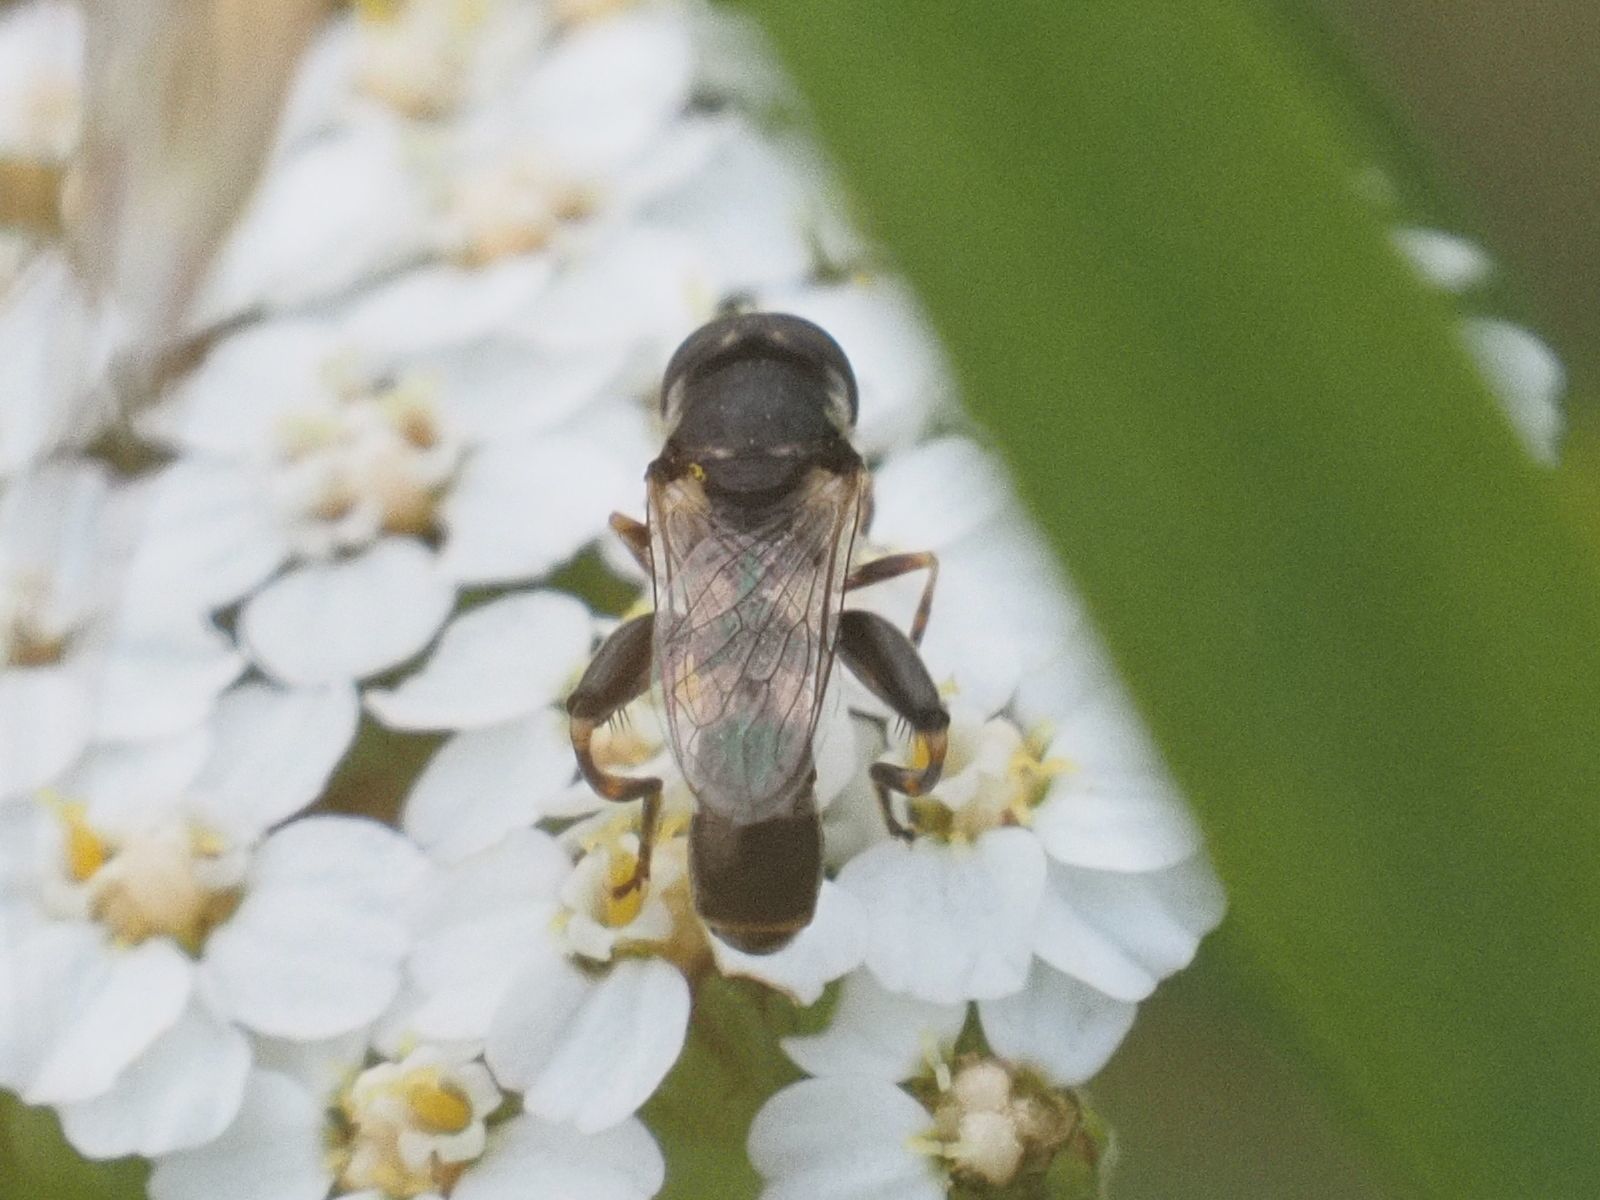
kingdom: Animalia
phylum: Arthropoda
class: Insecta
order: Diptera
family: Syrphidae
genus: Syritta
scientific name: Syritta pipiens
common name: Hover fly
